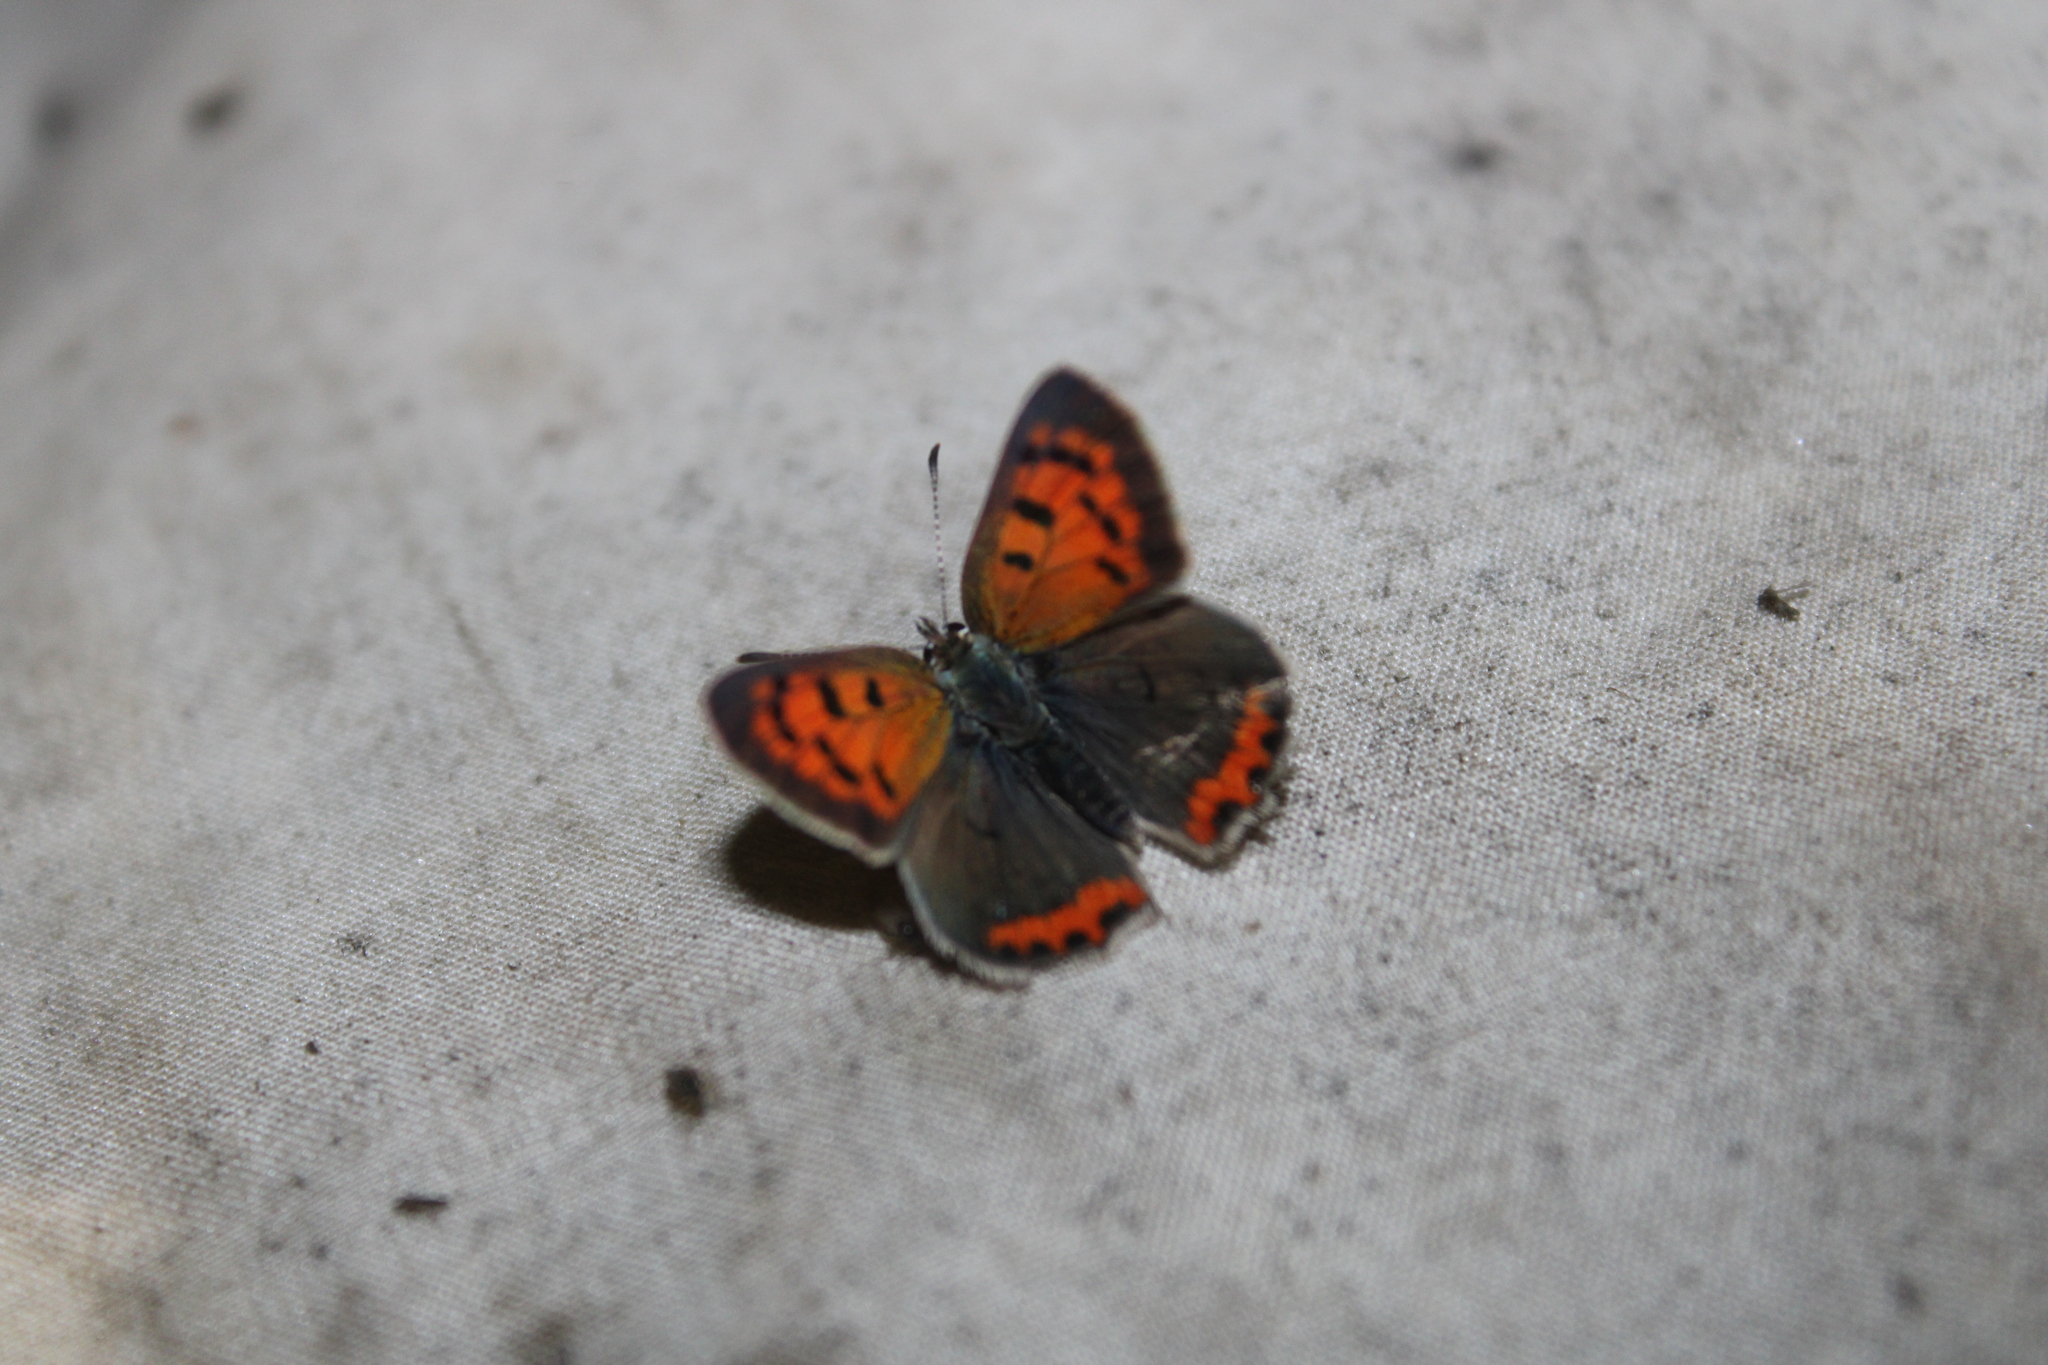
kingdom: Animalia
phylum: Arthropoda
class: Insecta
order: Lepidoptera
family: Lycaenidae
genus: Lycaena
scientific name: Lycaena hypophlaeas
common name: American copper
